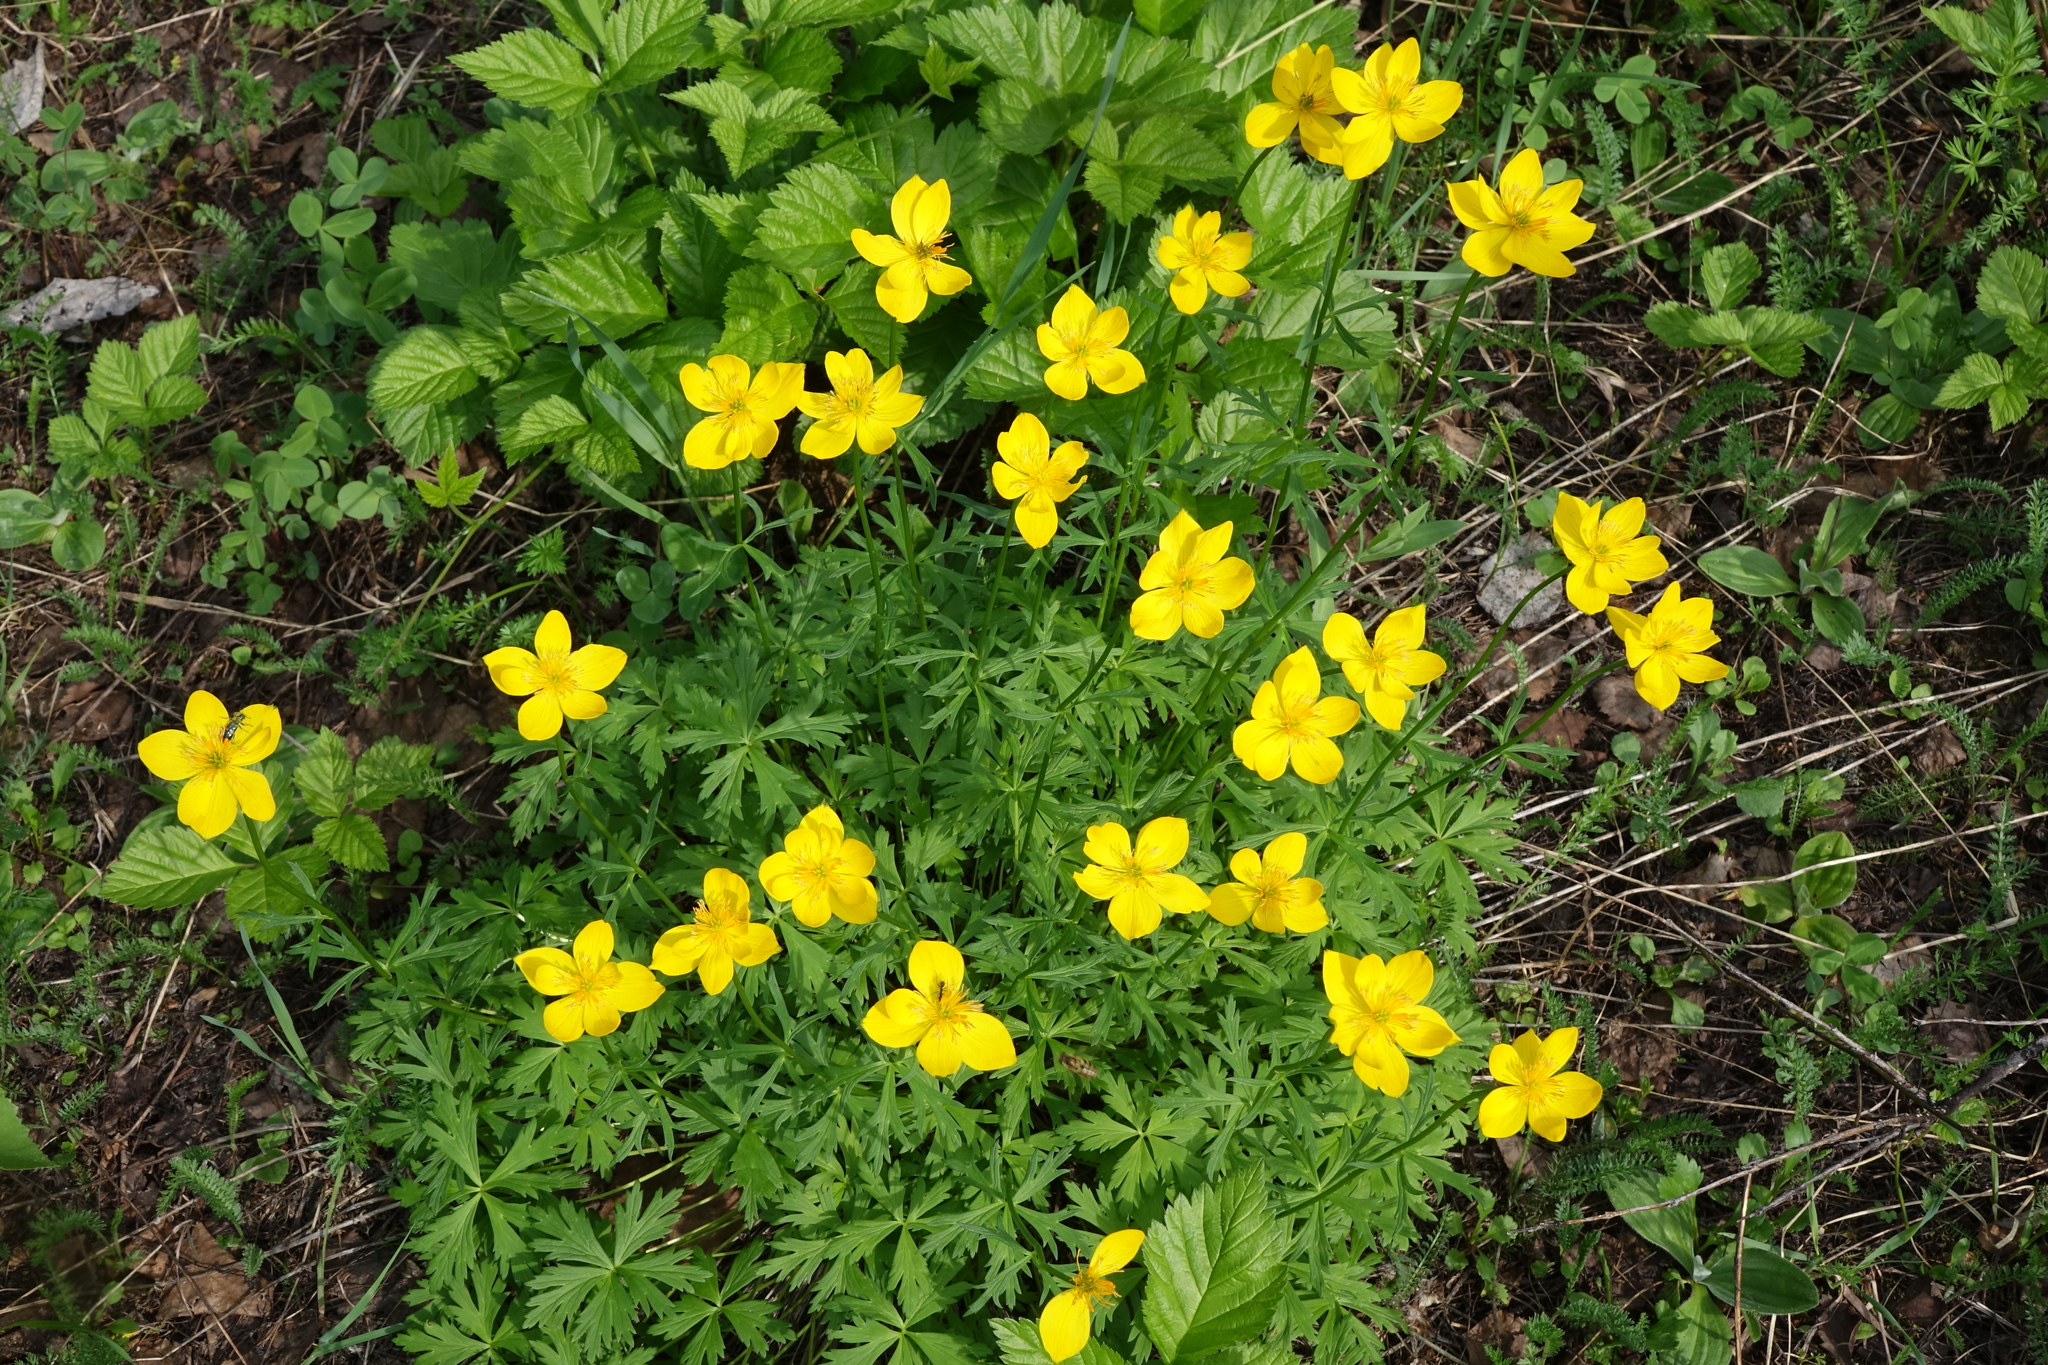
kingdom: Plantae
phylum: Tracheophyta
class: Magnoliopsida
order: Ranunculales
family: Ranunculaceae
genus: Trollius
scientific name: Trollius membranostylis
